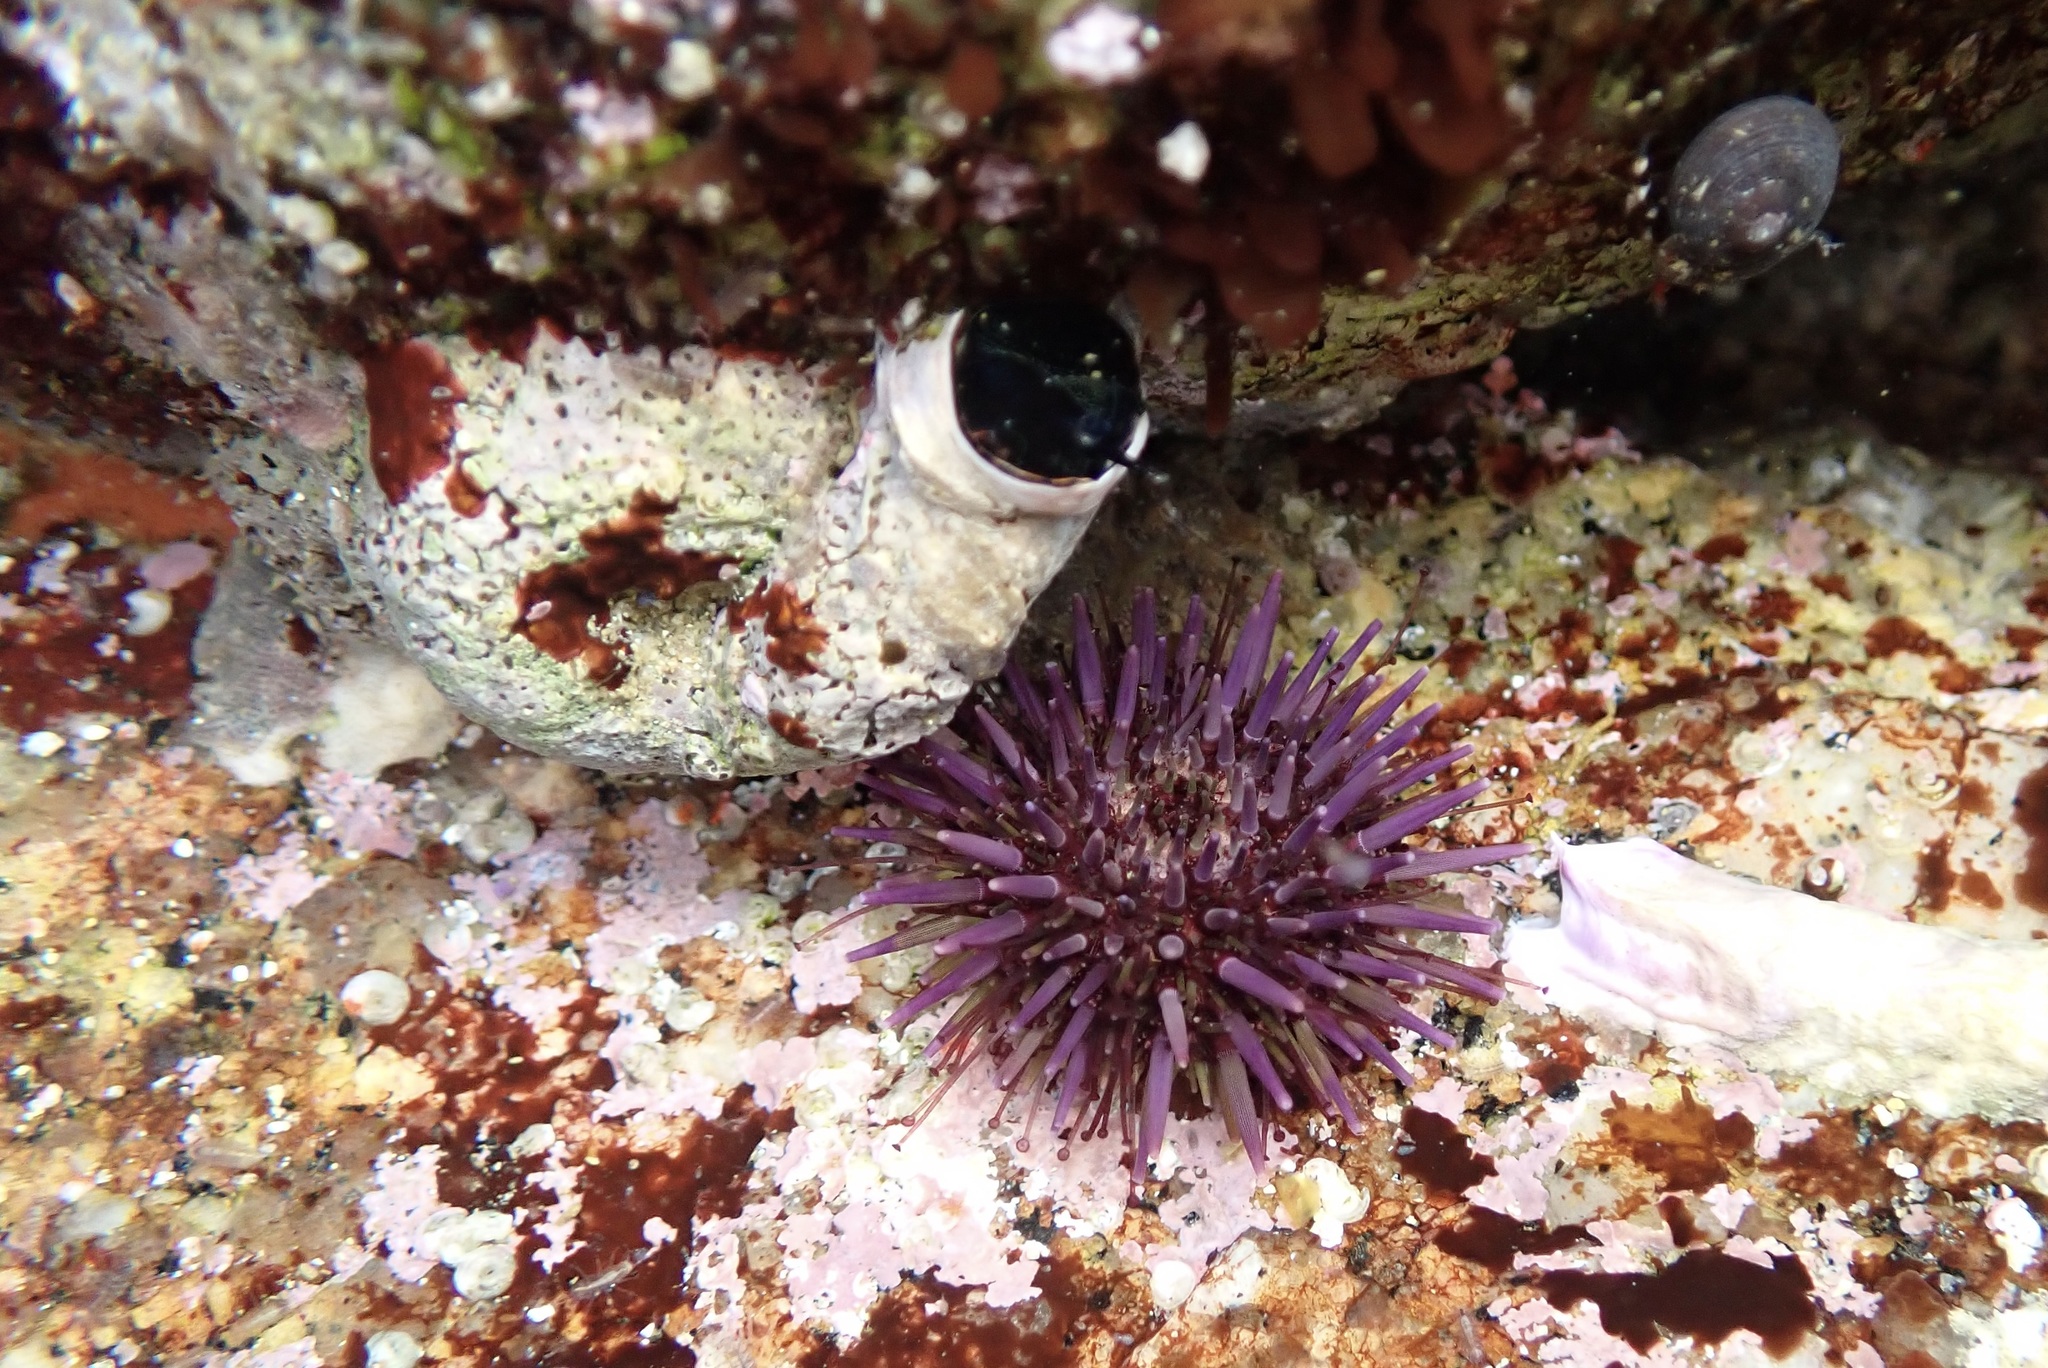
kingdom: Animalia
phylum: Echinodermata
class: Echinoidea
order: Camarodonta
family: Strongylocentrotidae
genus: Strongylocentrotus
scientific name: Strongylocentrotus purpuratus
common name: Purple sea urchin
